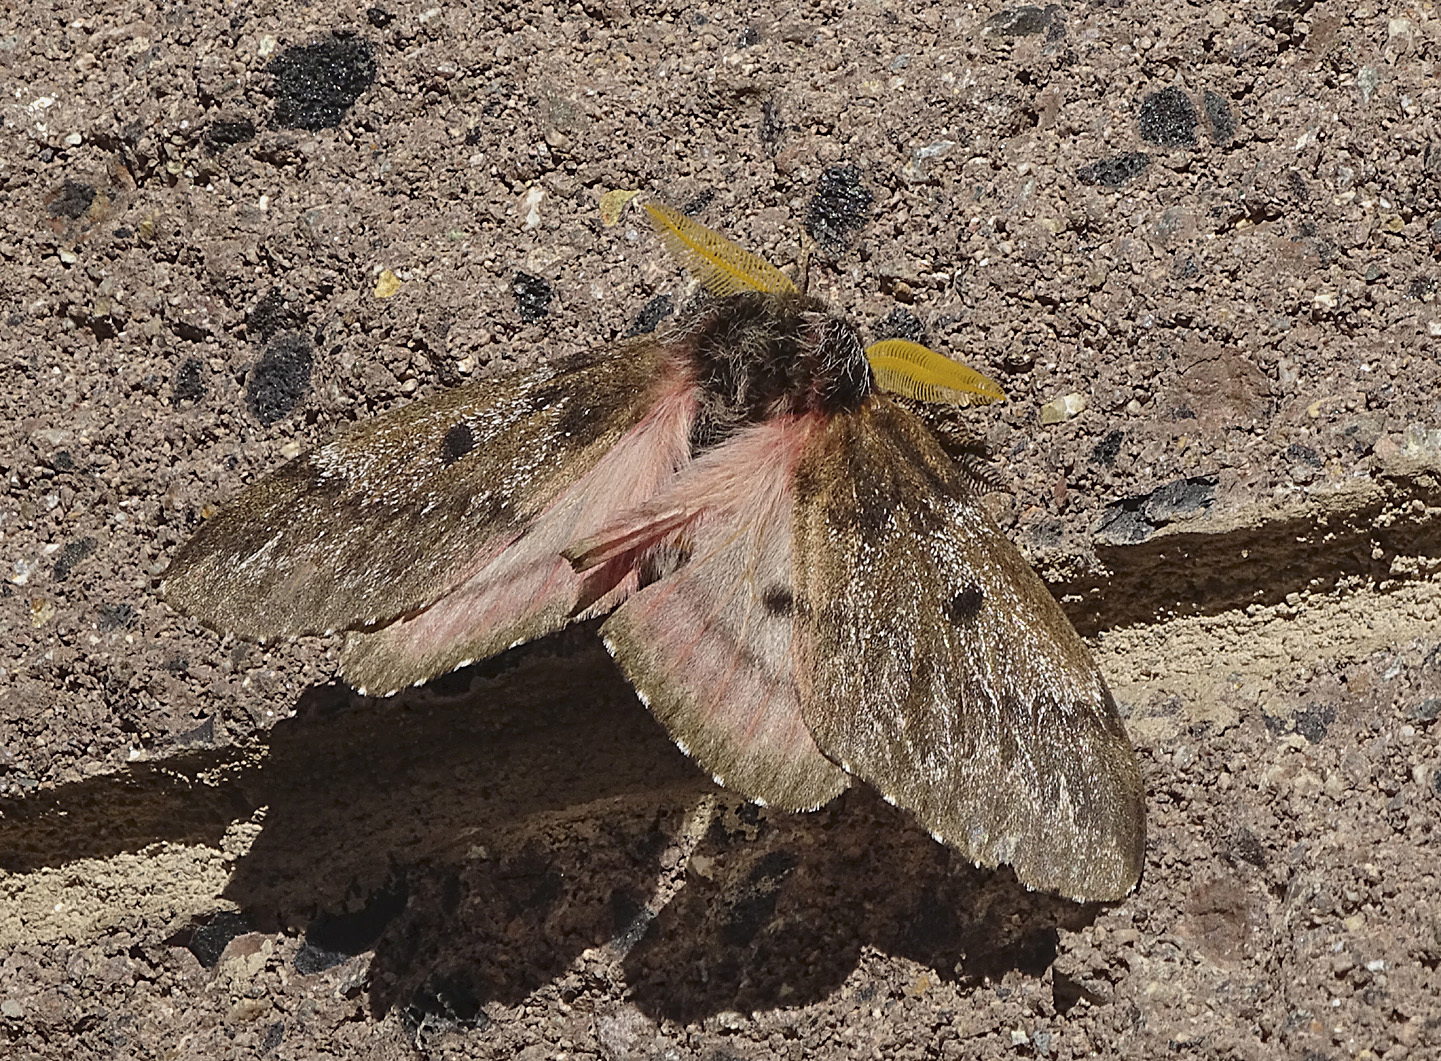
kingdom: Animalia
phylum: Arthropoda
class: Insecta
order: Lepidoptera
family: Saturniidae
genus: Coloradia
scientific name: Coloradia pandora
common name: Pandora pinemoth
